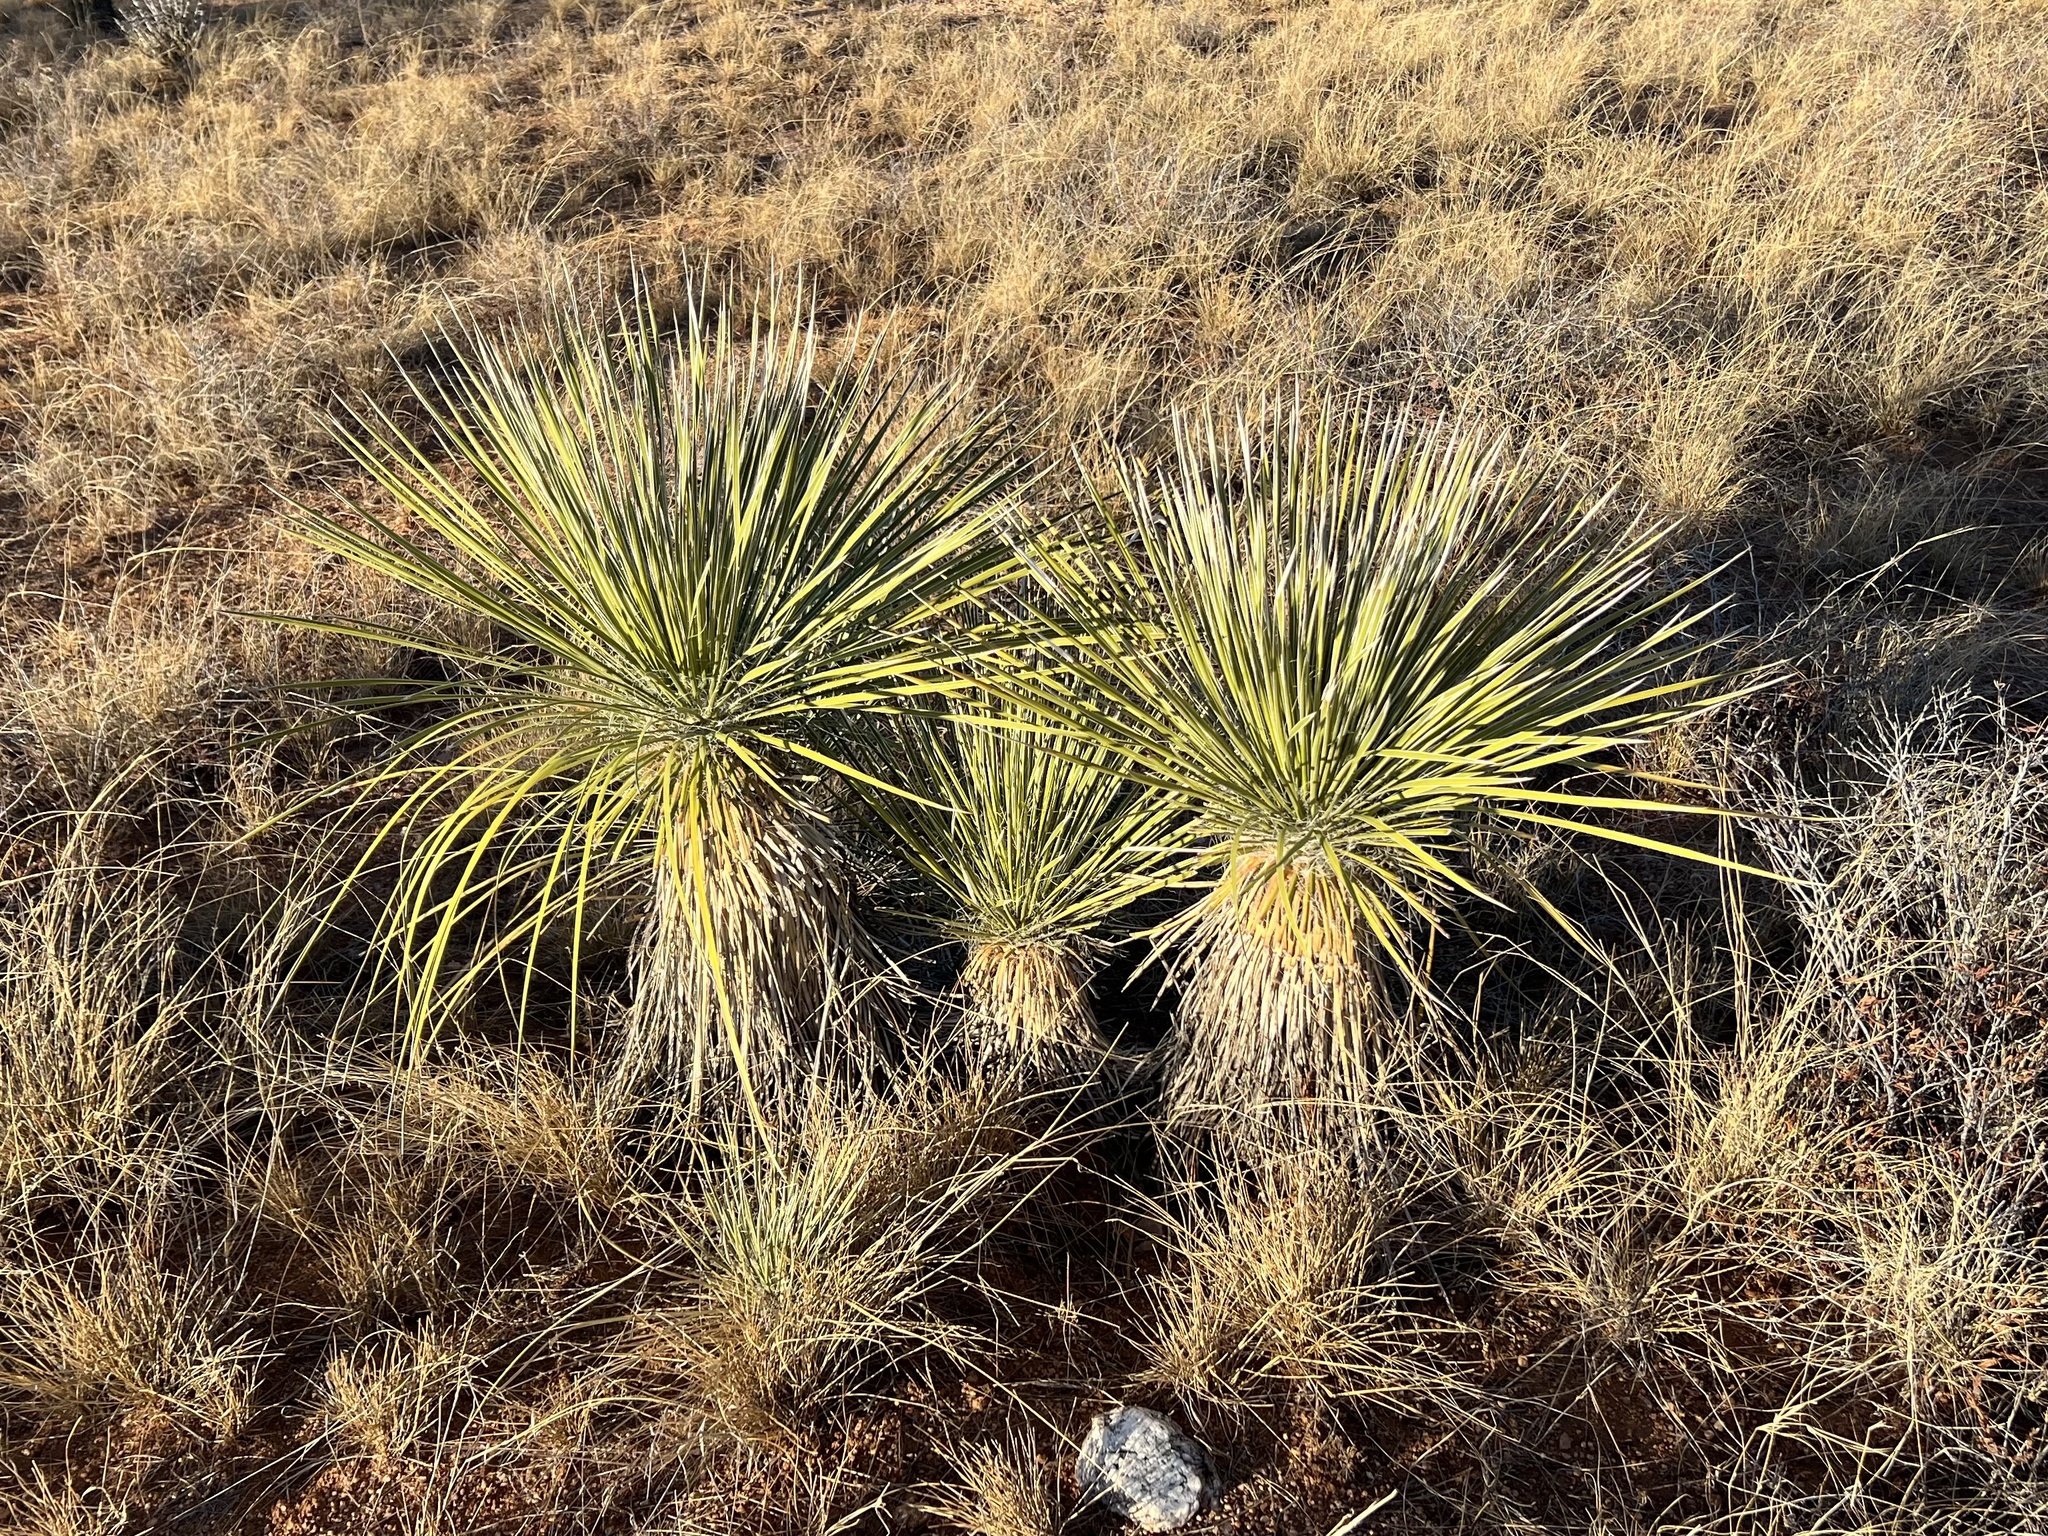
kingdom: Plantae
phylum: Tracheophyta
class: Liliopsida
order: Asparagales
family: Asparagaceae
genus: Yucca
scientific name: Yucca elata
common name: Palmella
